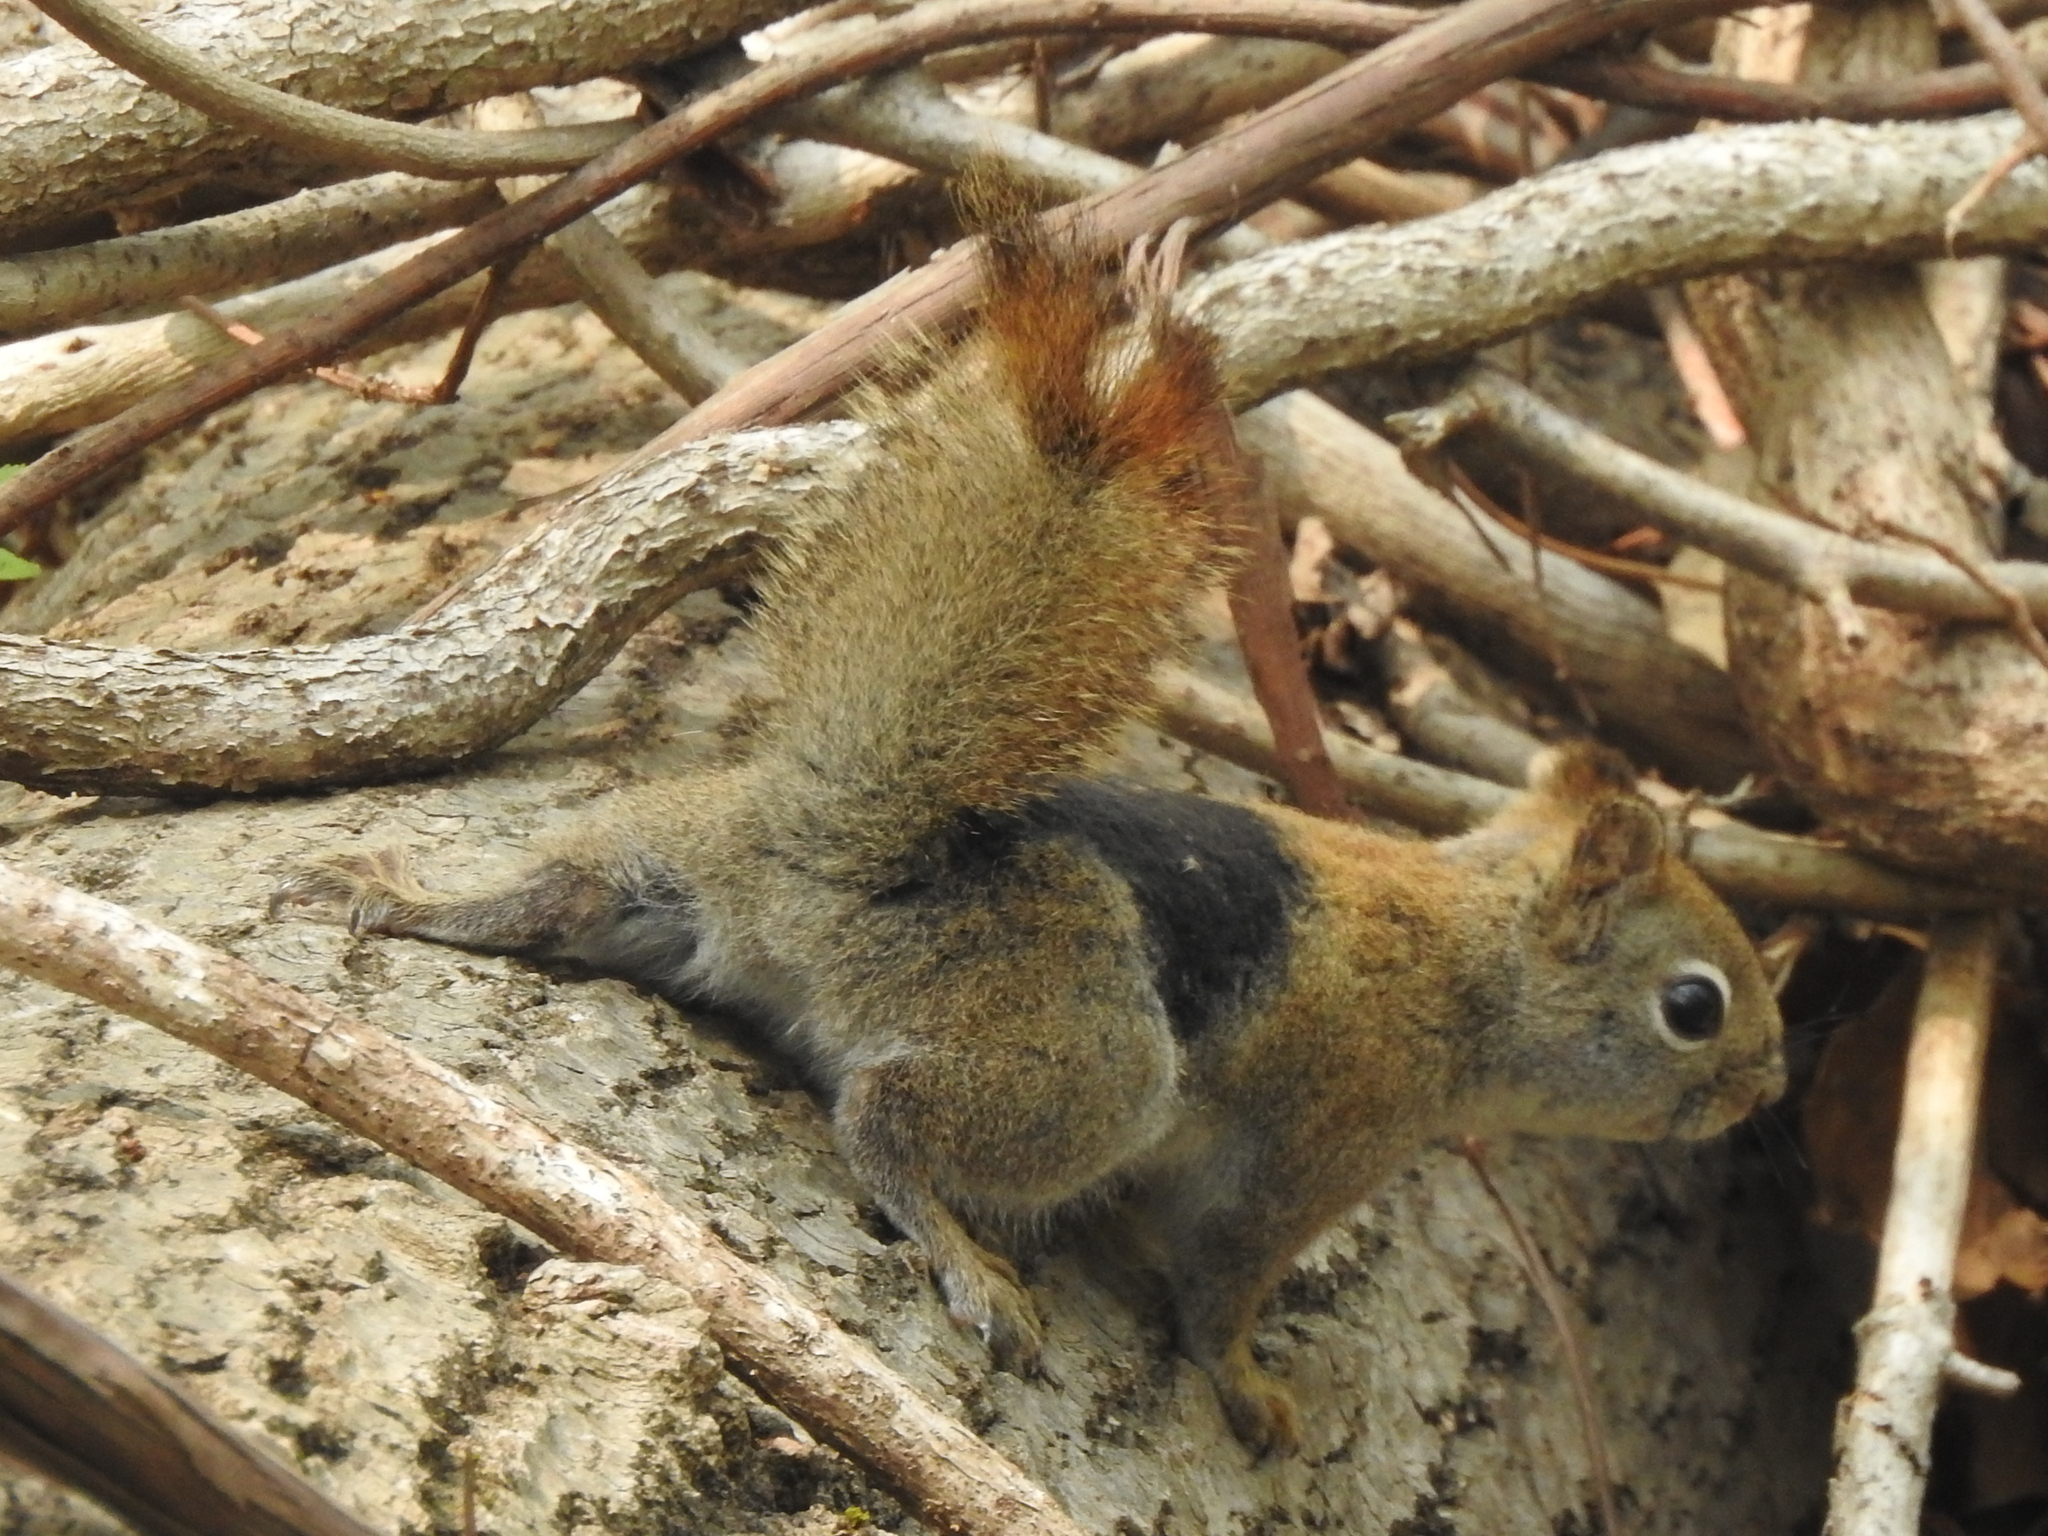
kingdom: Animalia
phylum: Chordata
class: Mammalia
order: Rodentia
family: Sciuridae
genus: Tamiasciurus
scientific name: Tamiasciurus hudsonicus
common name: Red squirrel
